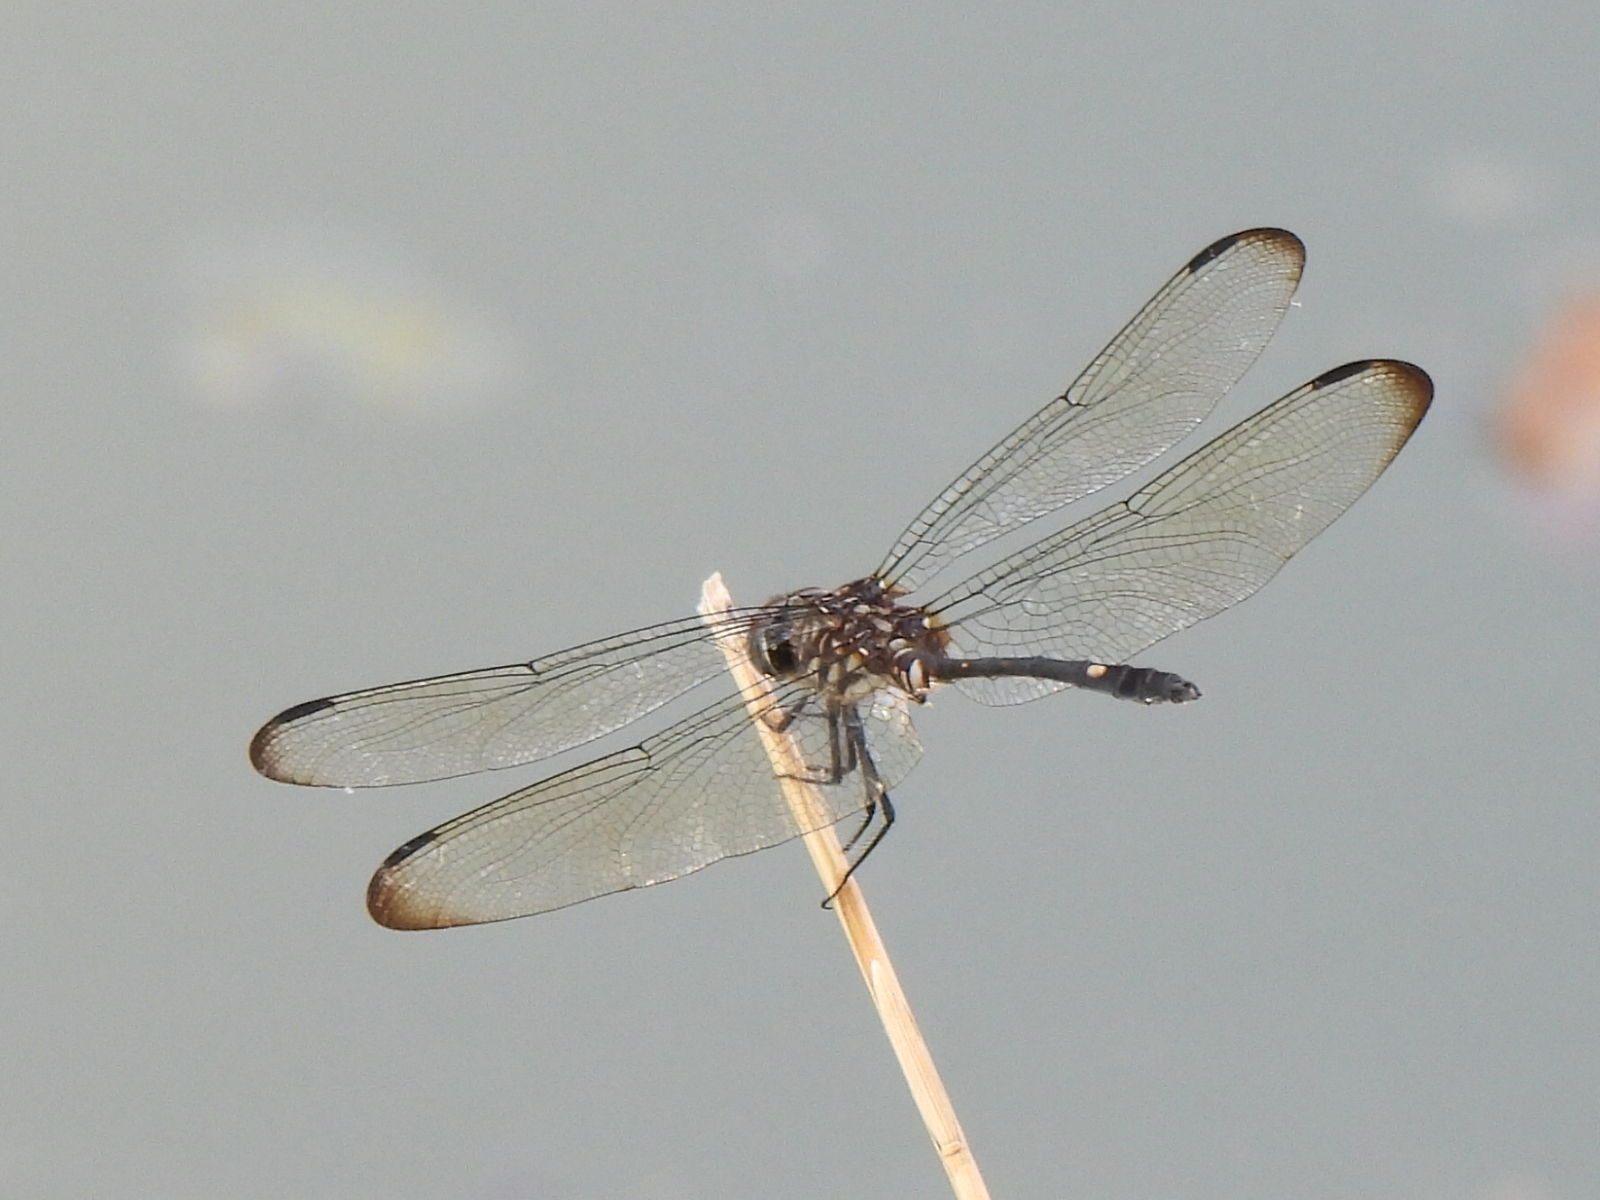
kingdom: Animalia
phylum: Arthropoda
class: Insecta
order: Odonata
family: Libellulidae
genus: Dythemis
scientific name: Dythemis velox
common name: Swift setwing
